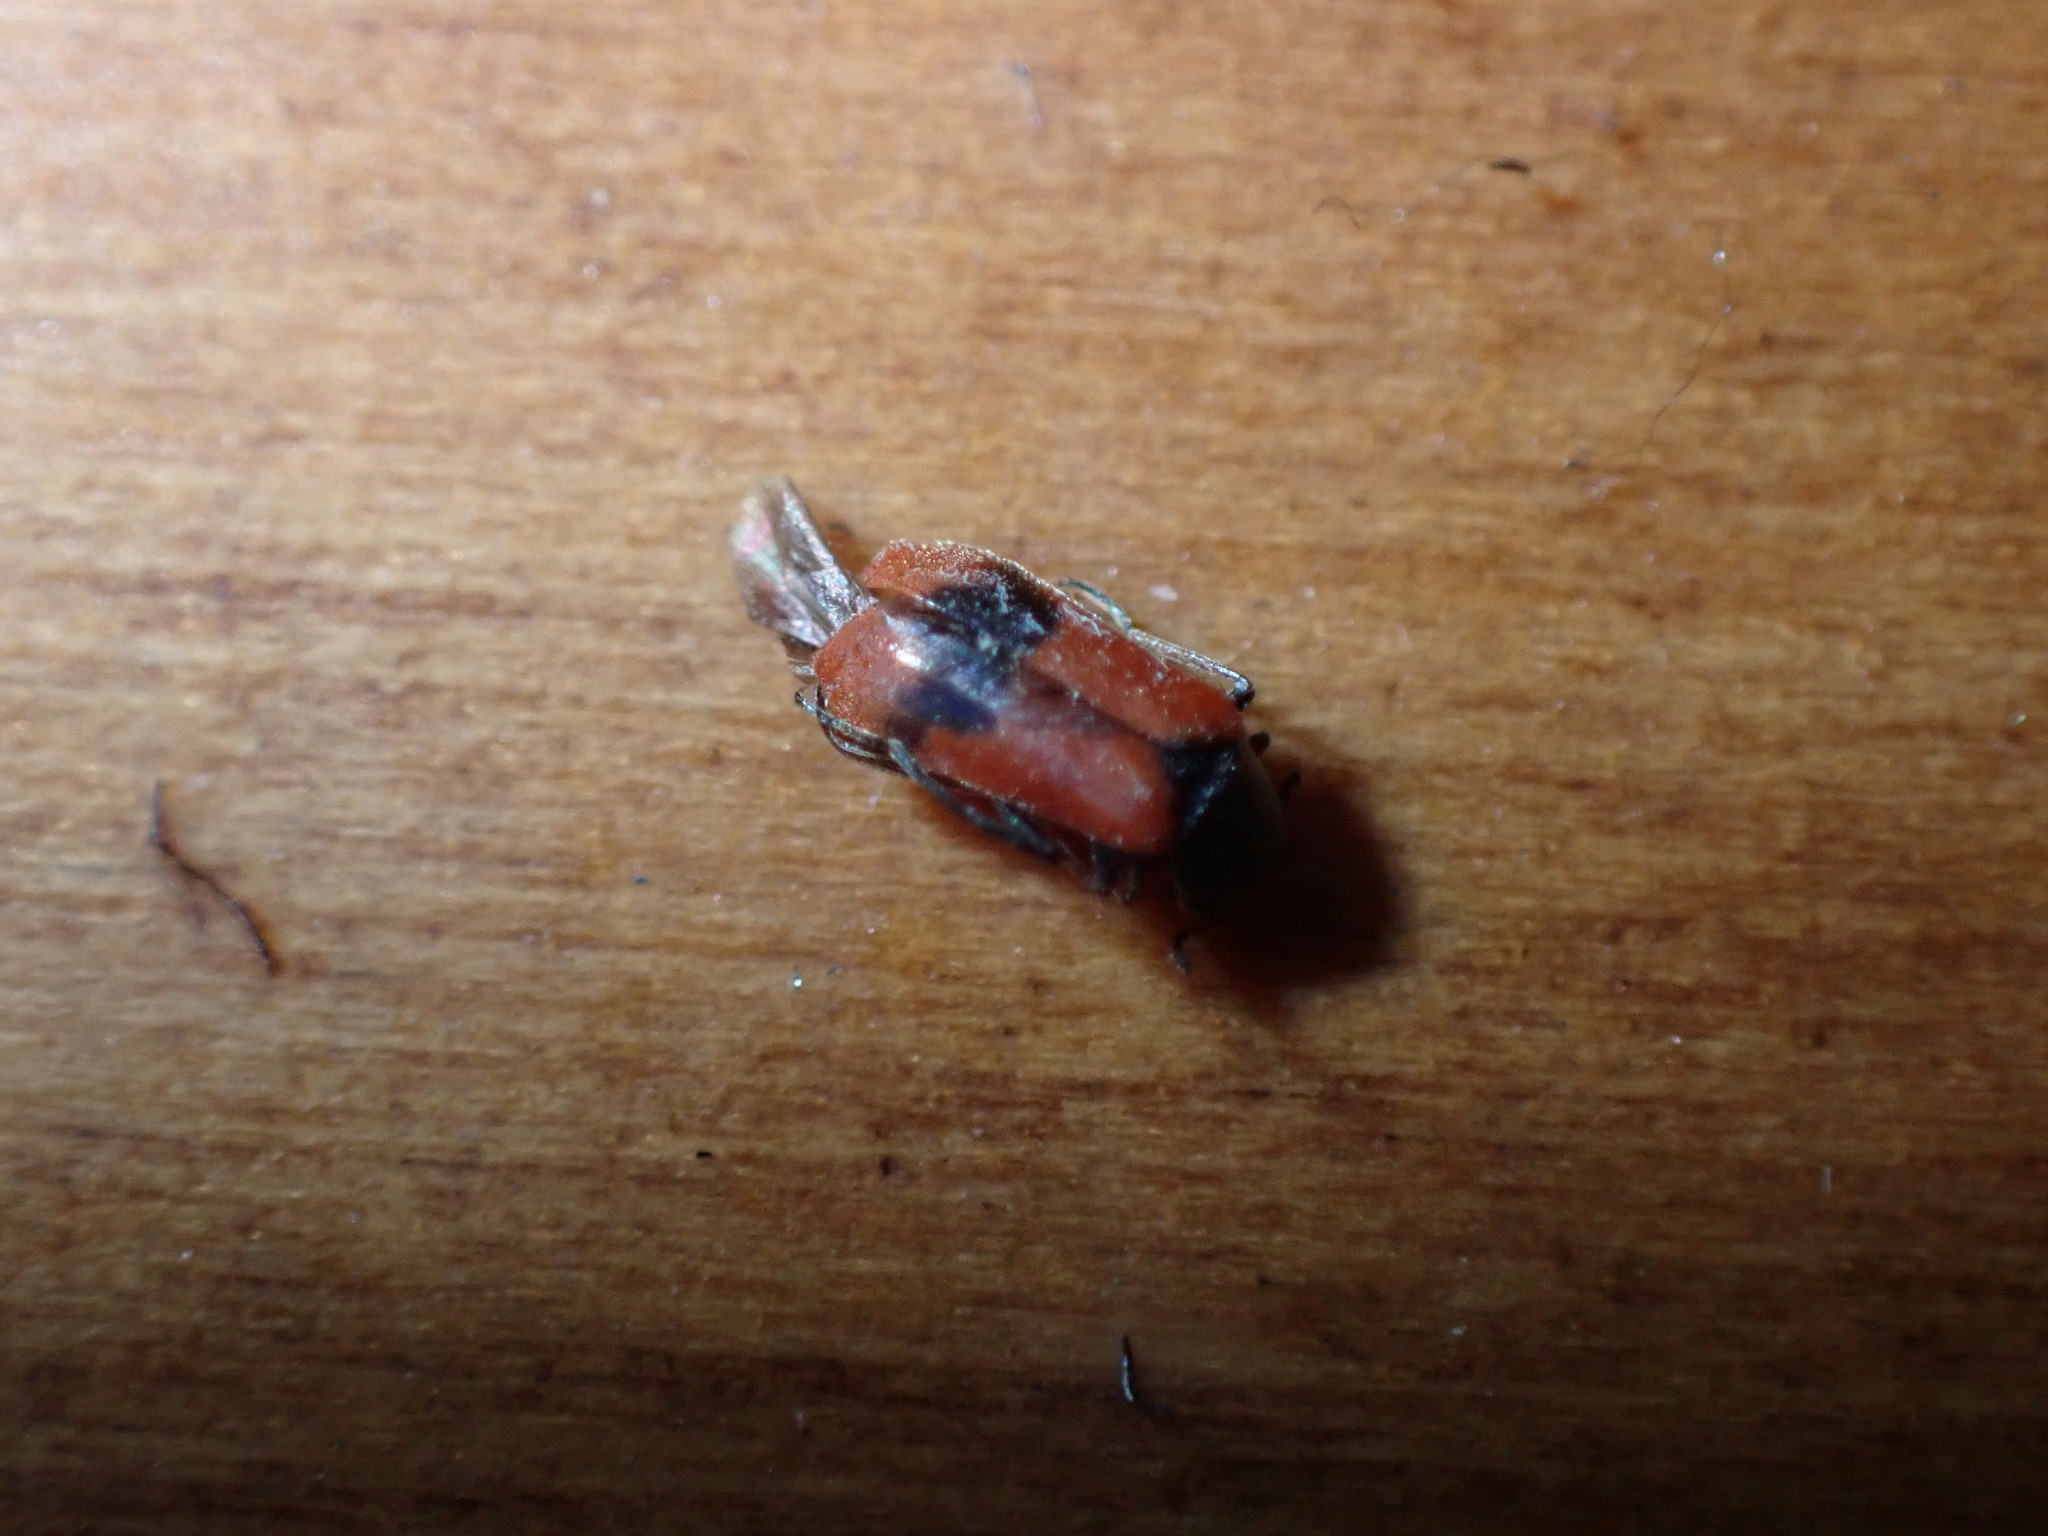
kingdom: Animalia
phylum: Arthropoda
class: Insecta
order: Coleoptera
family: Melyridae
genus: Anthocomus
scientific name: Anthocomus equestris
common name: Black-banded soft-winged flower beetle
